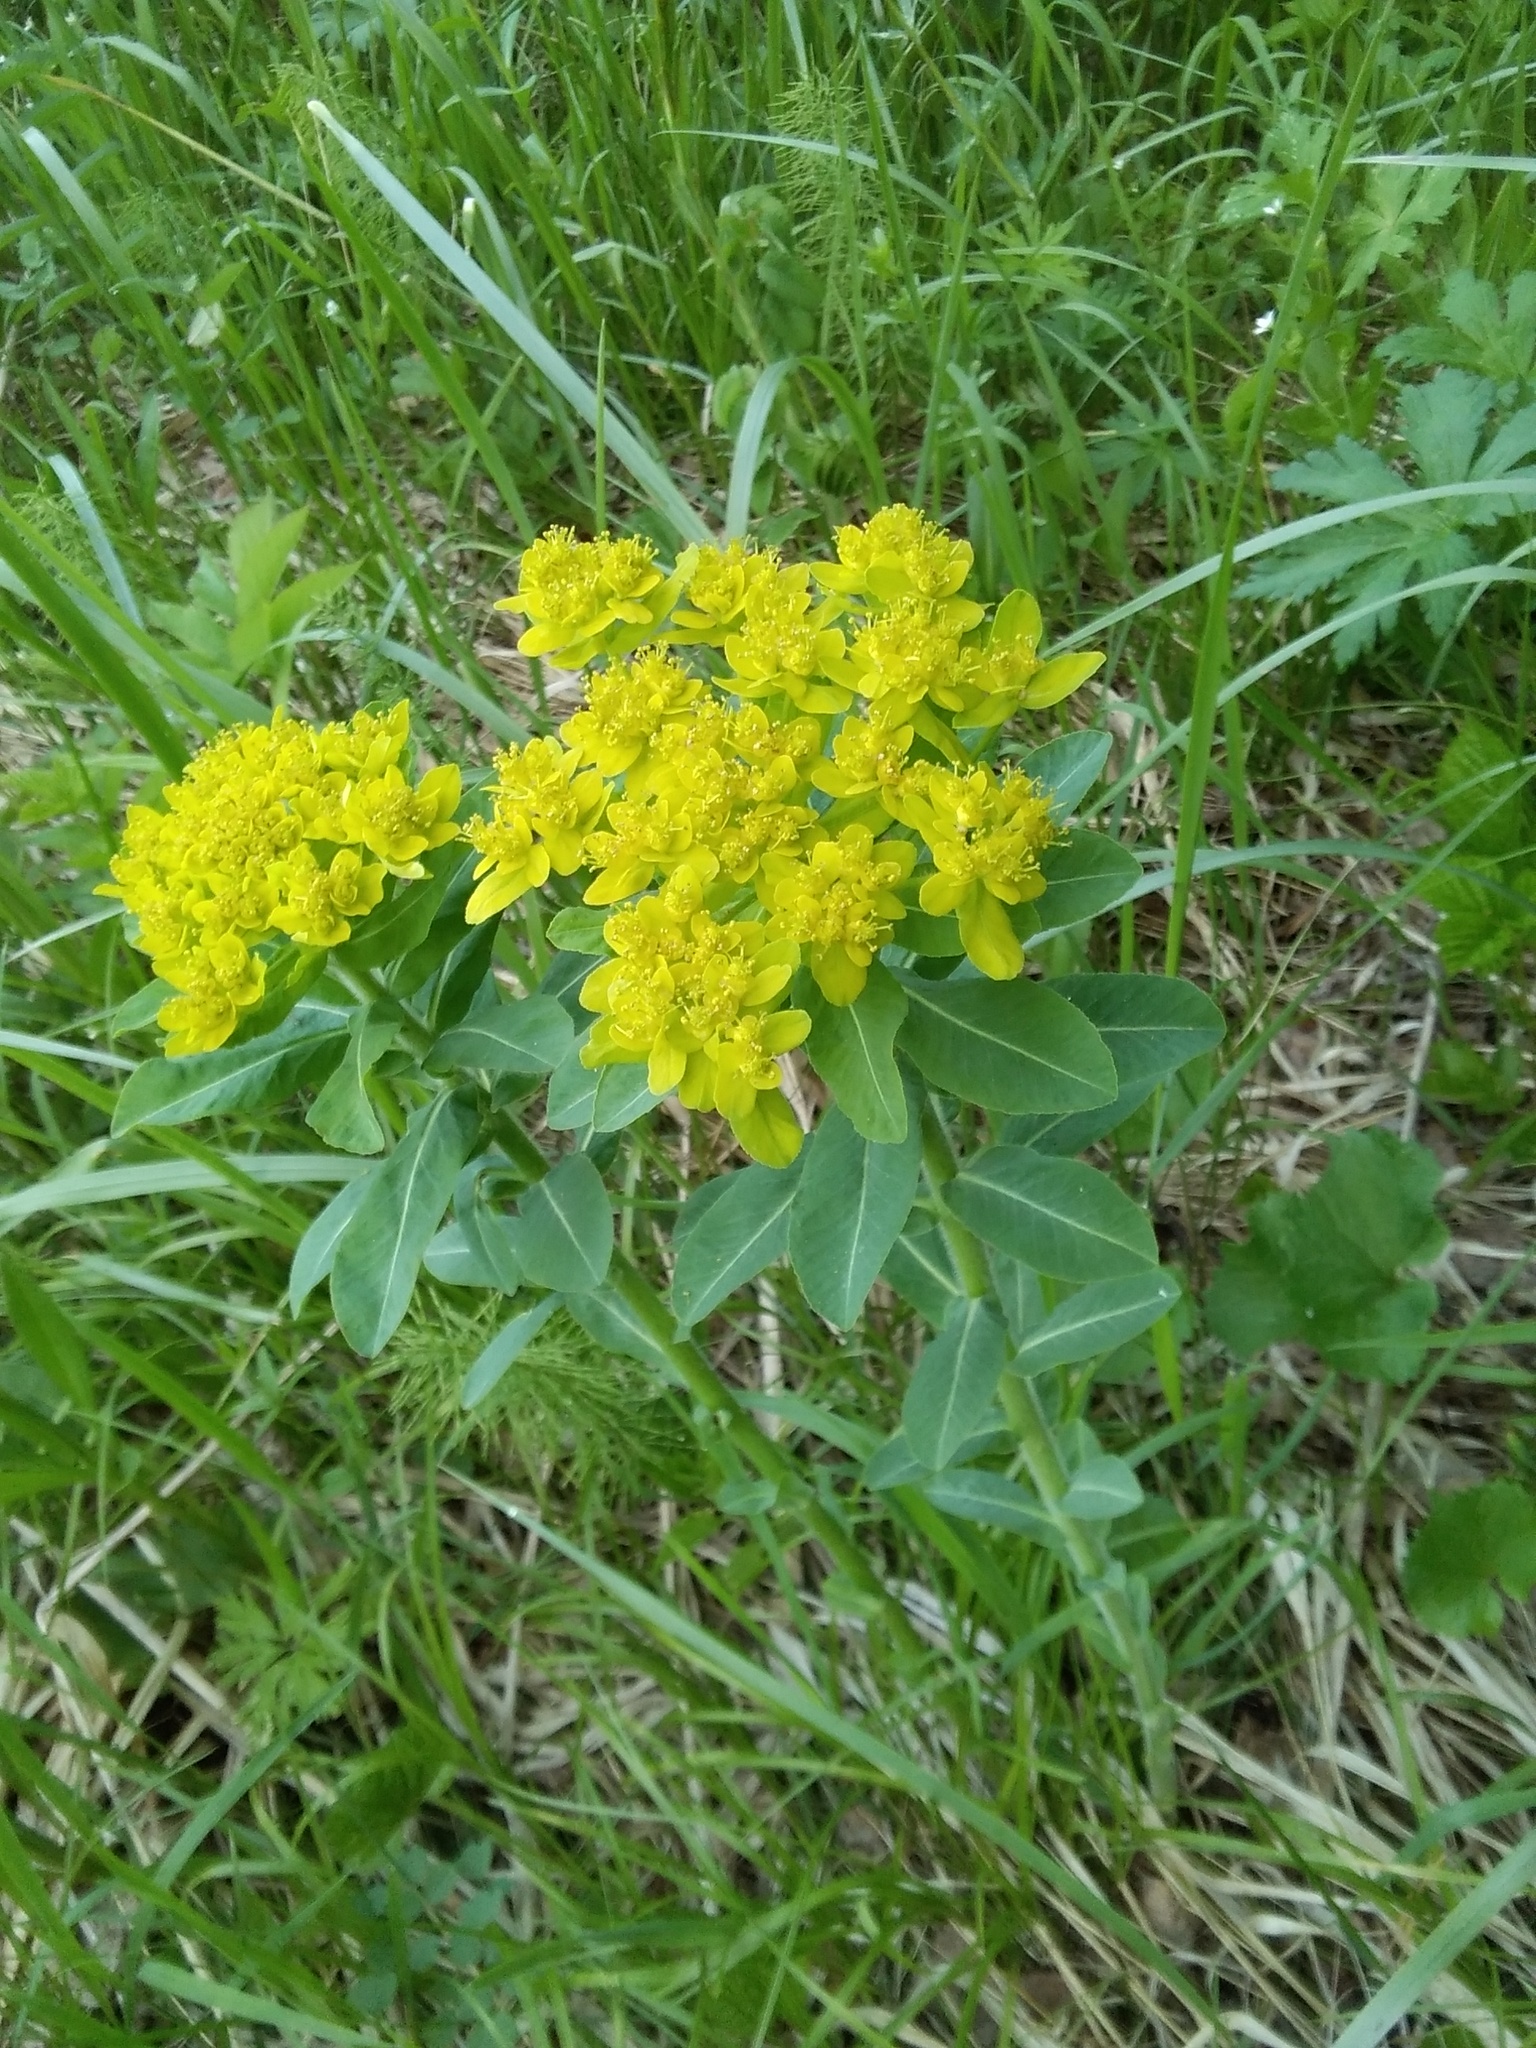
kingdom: Plantae
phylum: Tracheophyta
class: Magnoliopsida
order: Malpighiales
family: Euphorbiaceae
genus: Euphorbia
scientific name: Euphorbia pilosa
